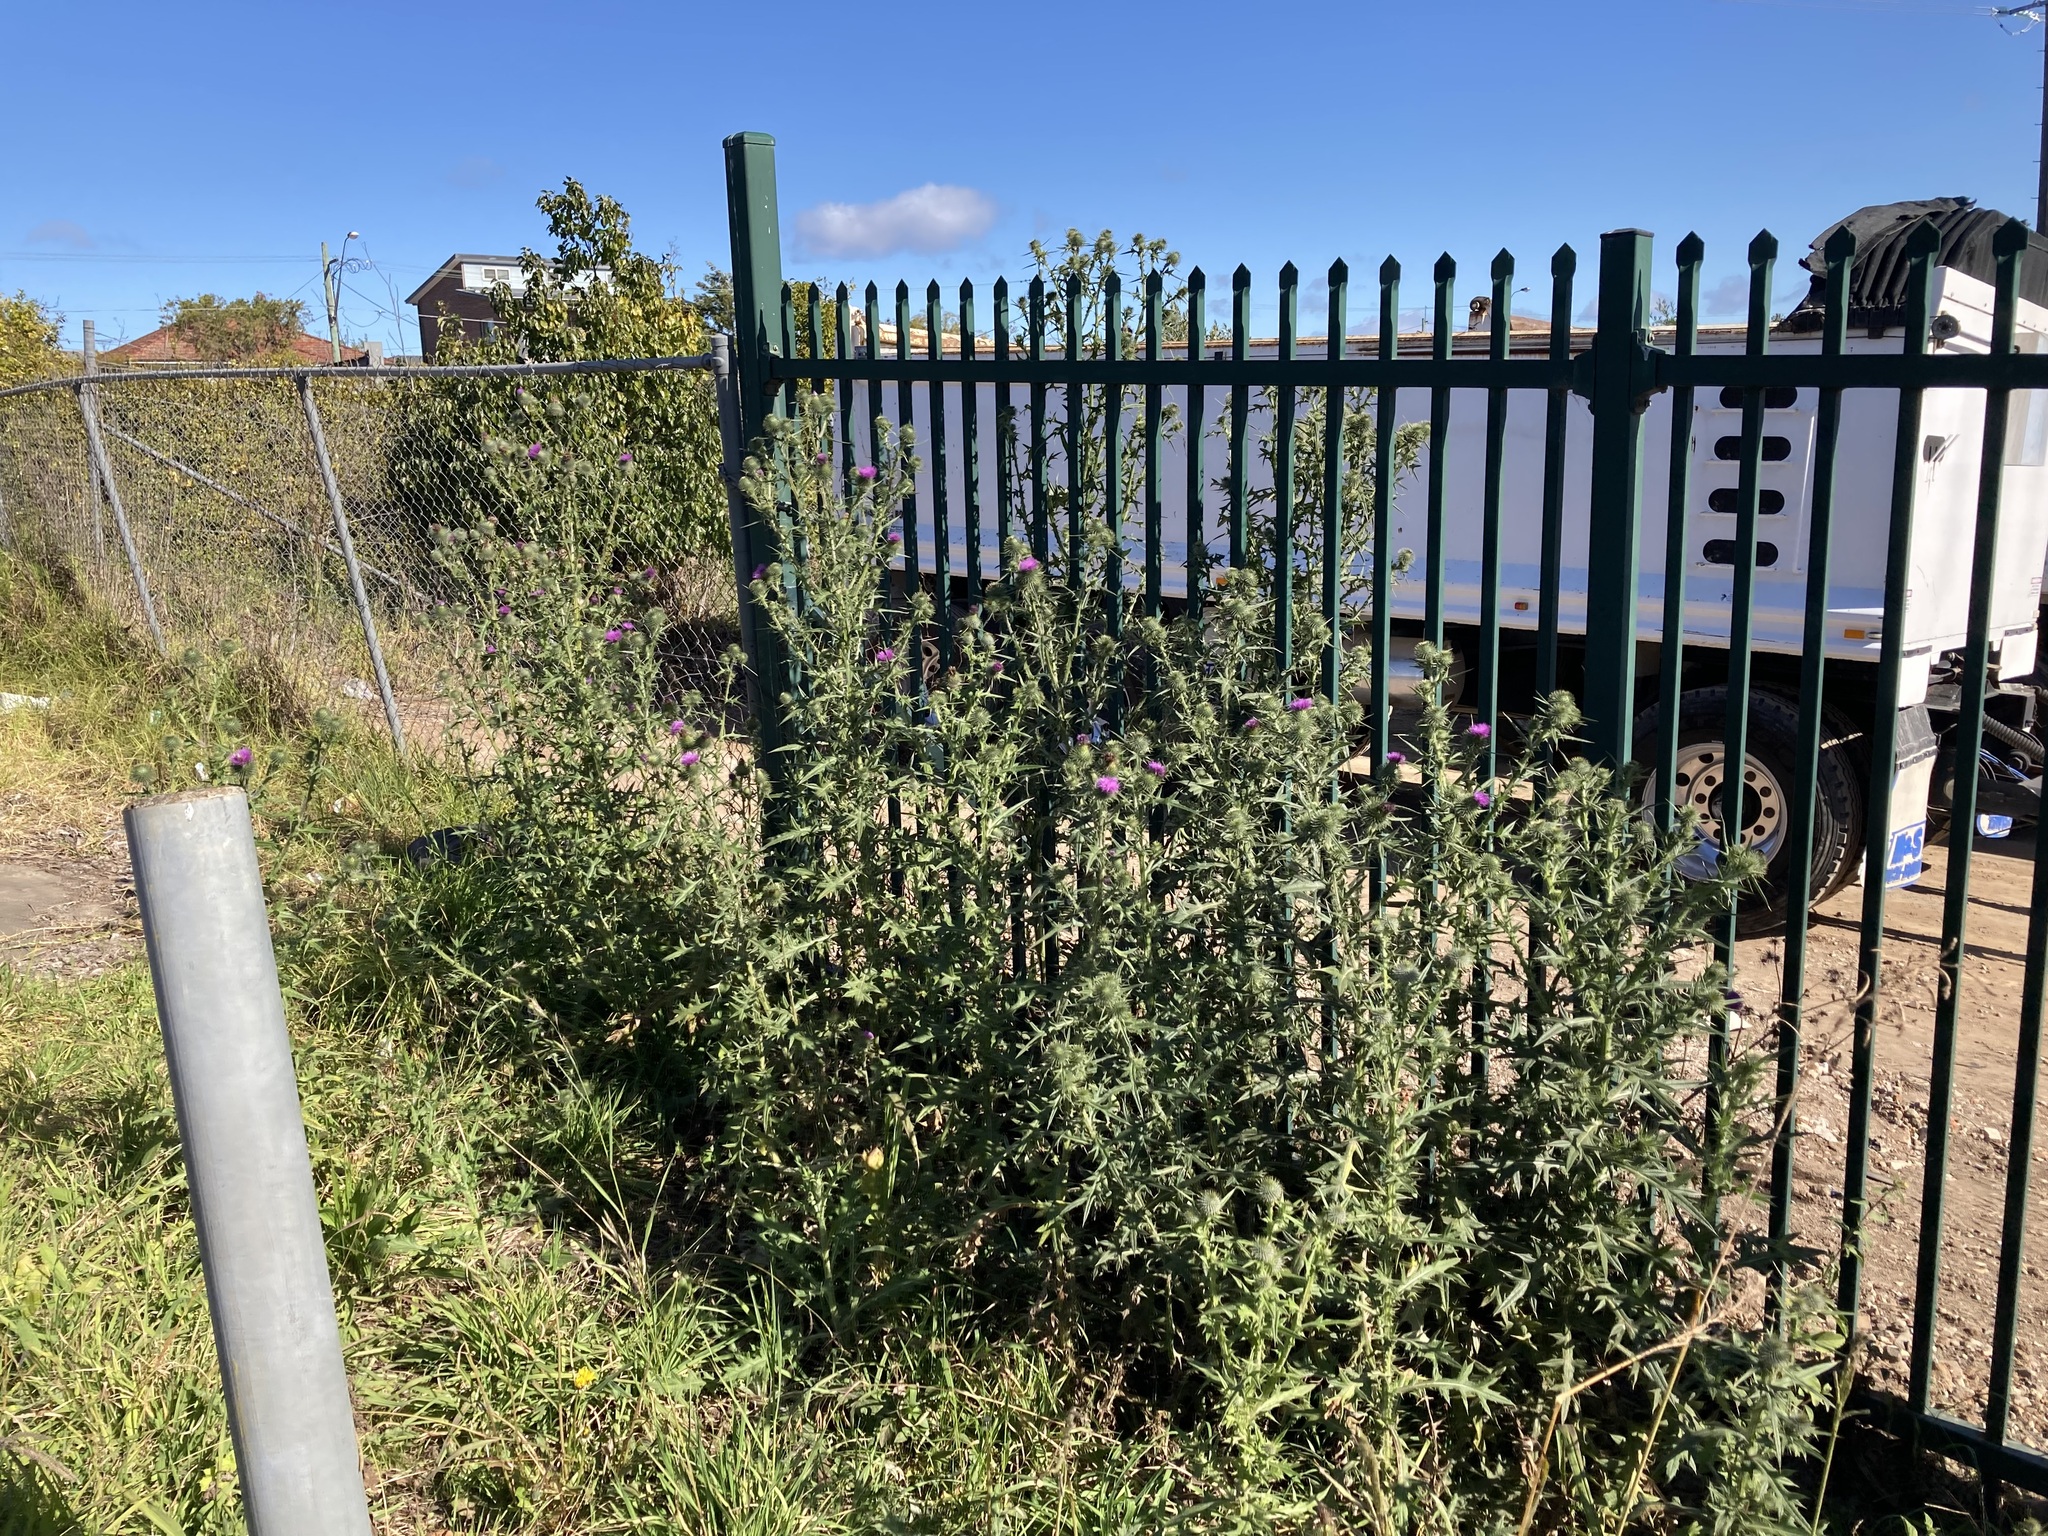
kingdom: Plantae
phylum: Tracheophyta
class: Magnoliopsida
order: Asterales
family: Asteraceae
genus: Cirsium
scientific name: Cirsium vulgare
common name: Bull thistle
